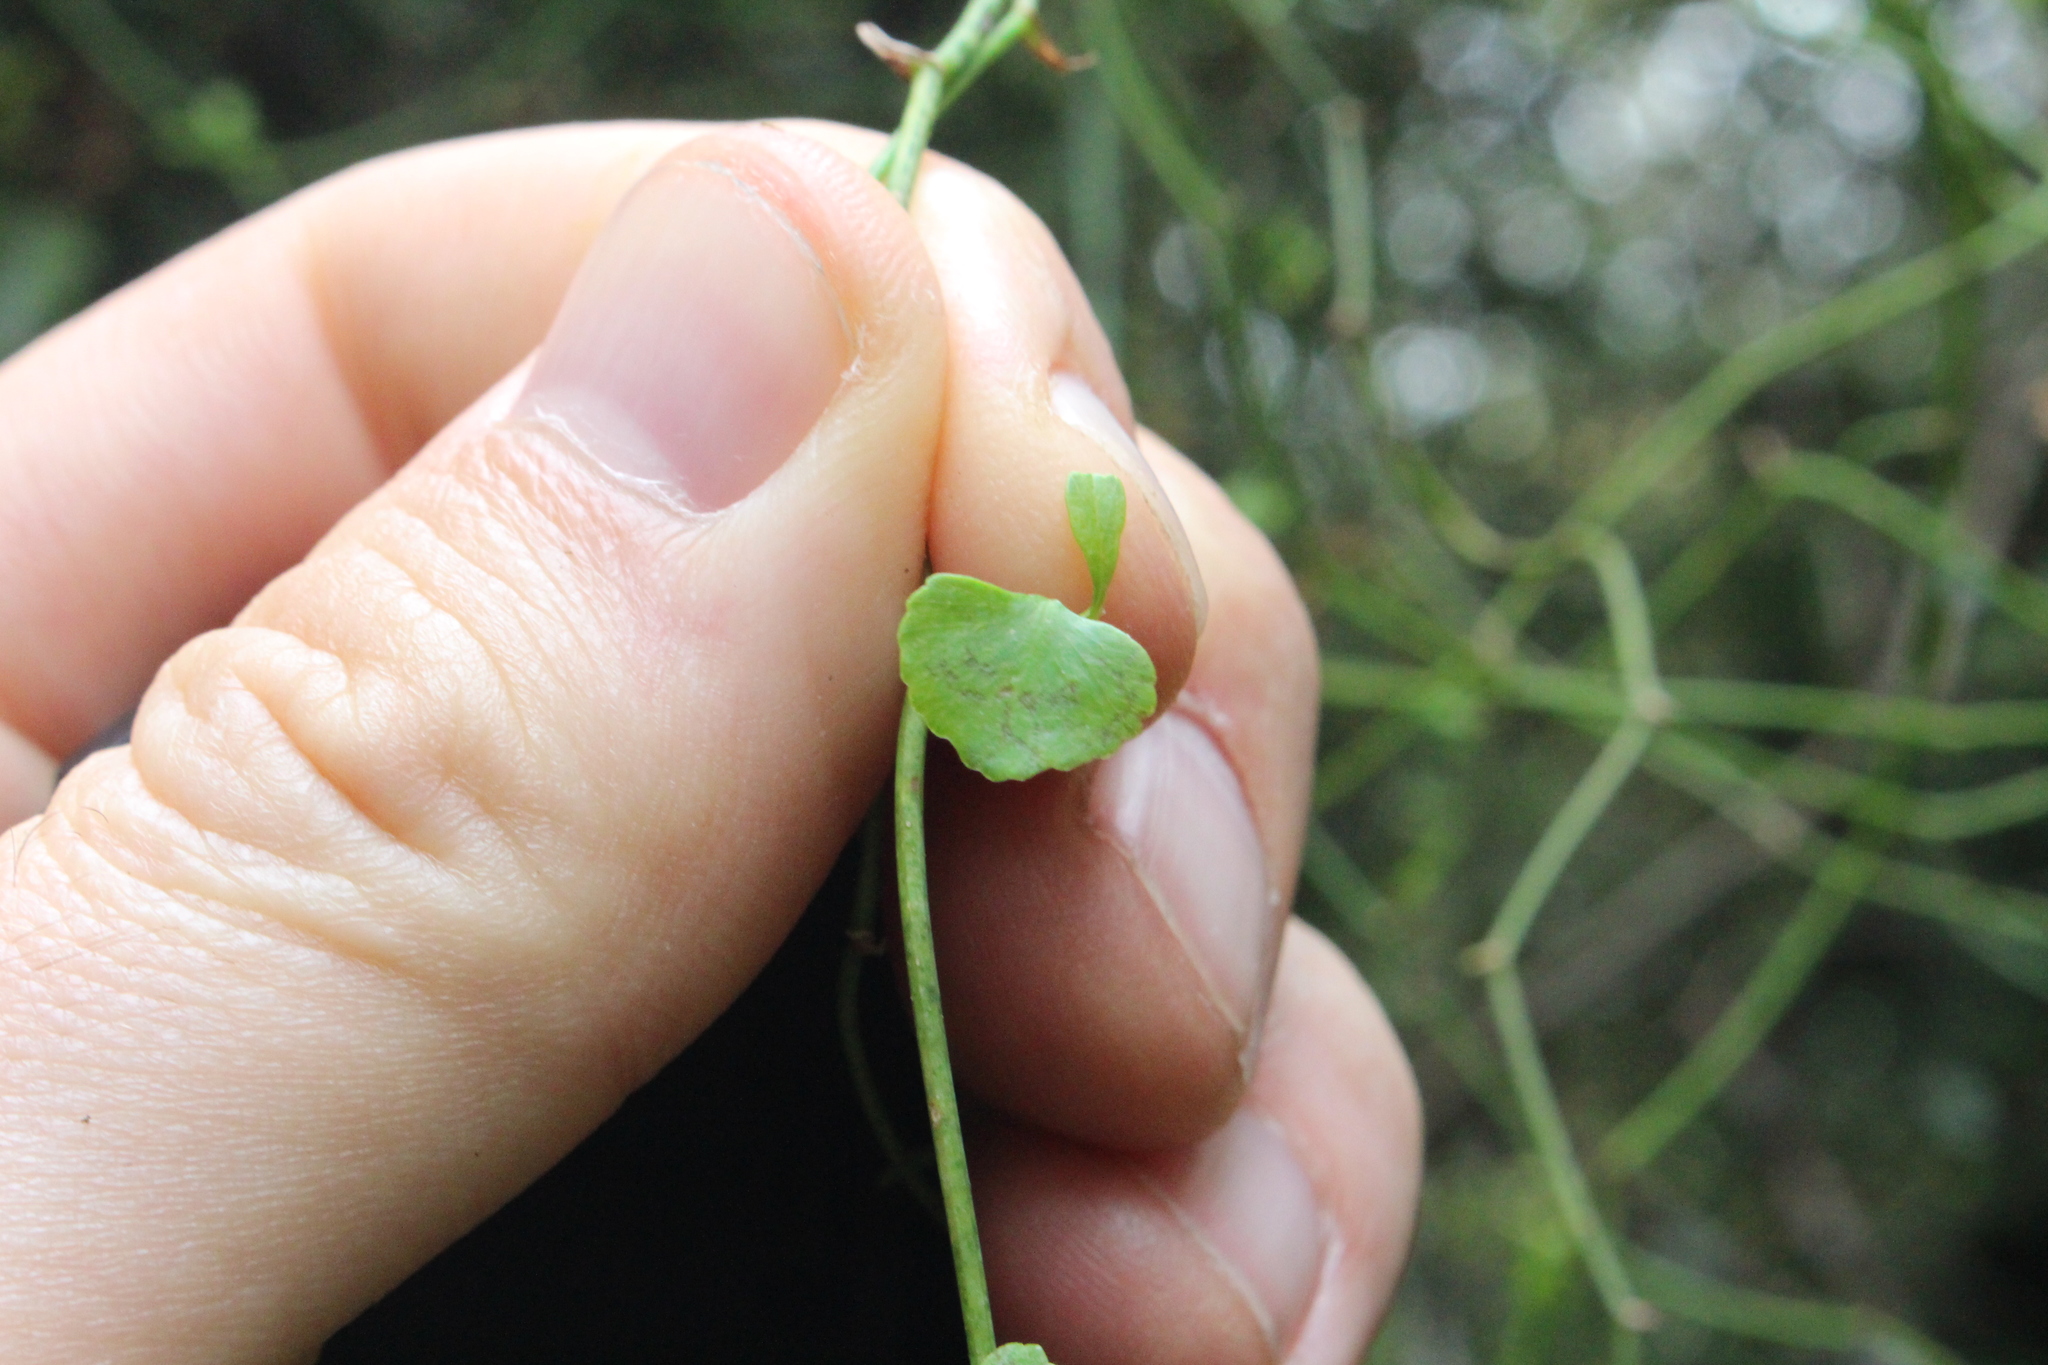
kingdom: Plantae
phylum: Tracheophyta
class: Magnoliopsida
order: Apiales
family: Apiaceae
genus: Scandia
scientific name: Scandia geniculata
